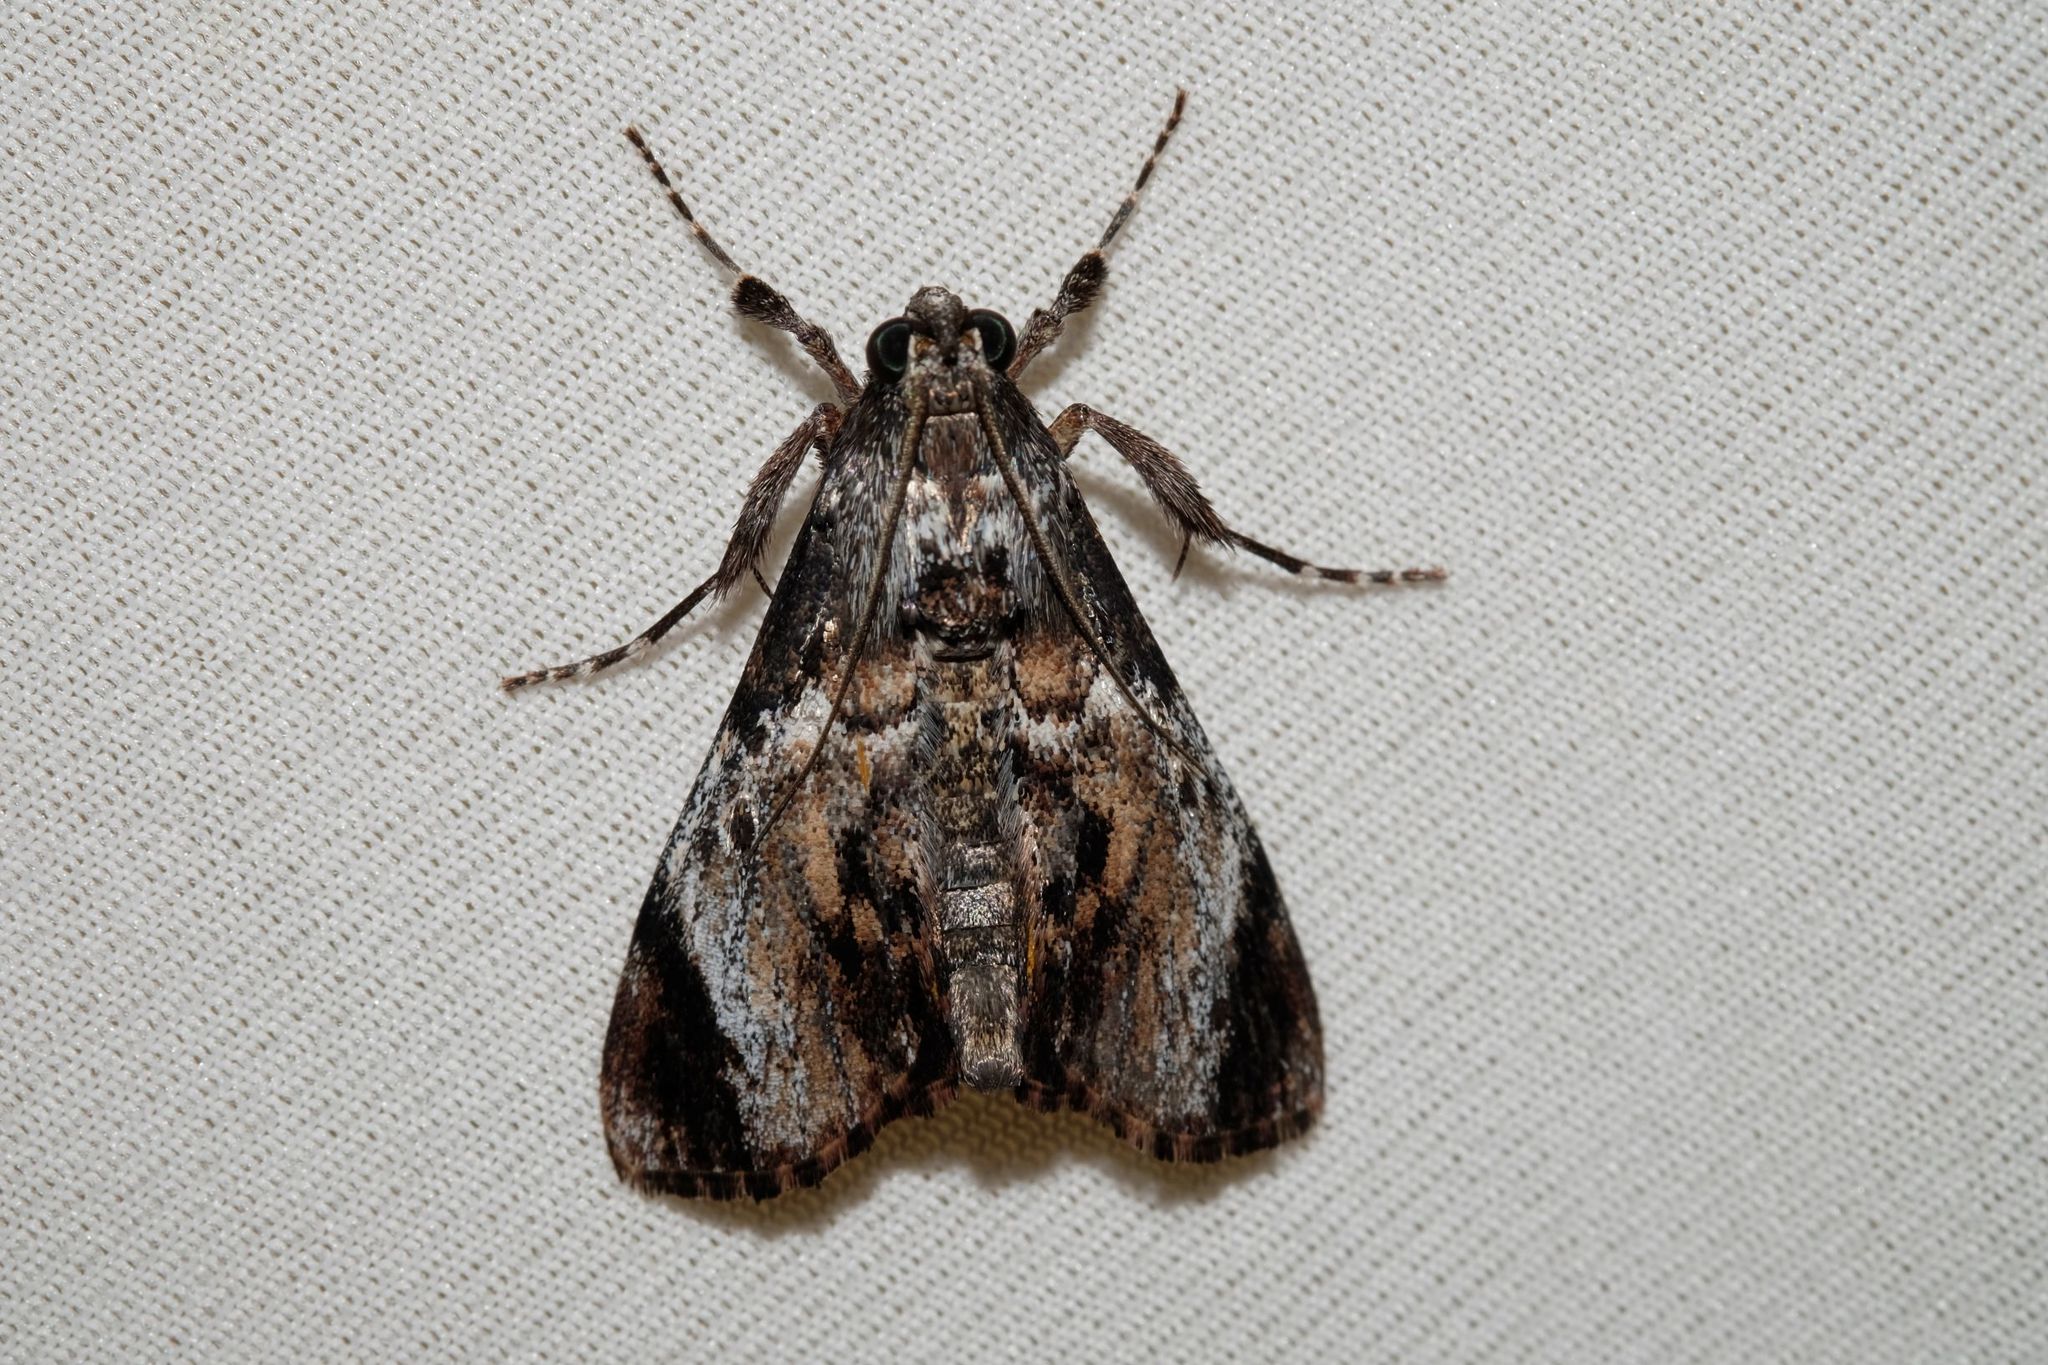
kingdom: Animalia
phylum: Arthropoda
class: Insecta
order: Lepidoptera
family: Pyralidae
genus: Salma
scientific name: Salma pyrastis
